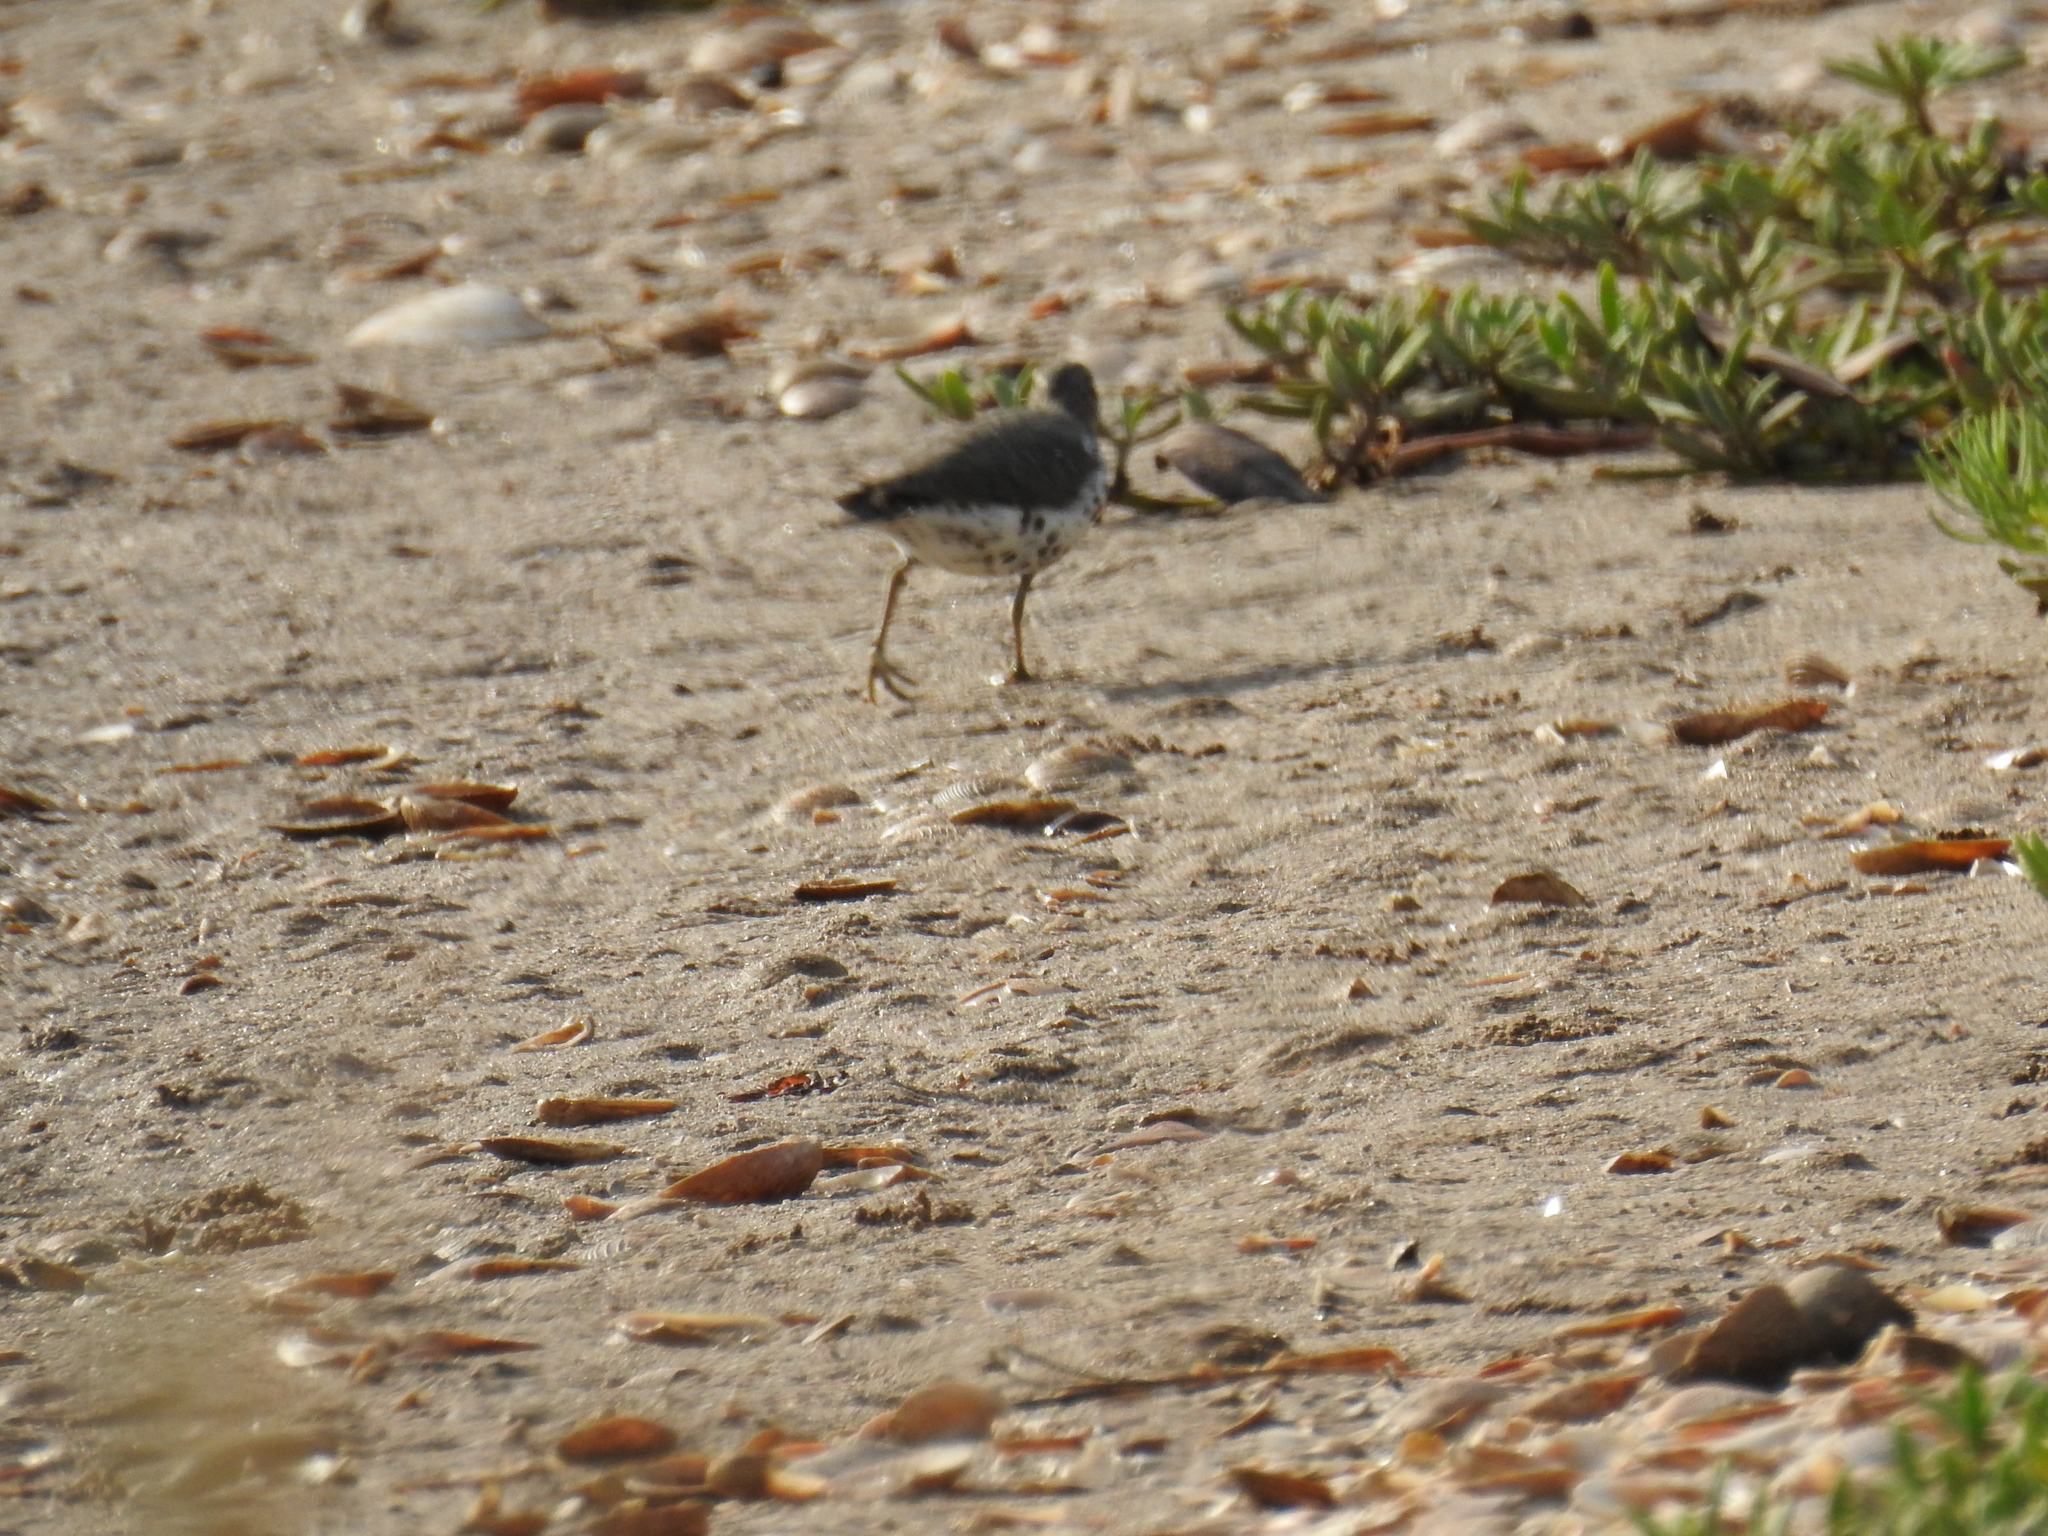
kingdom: Animalia
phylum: Chordata
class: Aves
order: Charadriiformes
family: Scolopacidae
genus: Actitis
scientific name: Actitis macularius
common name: Spotted sandpiper
